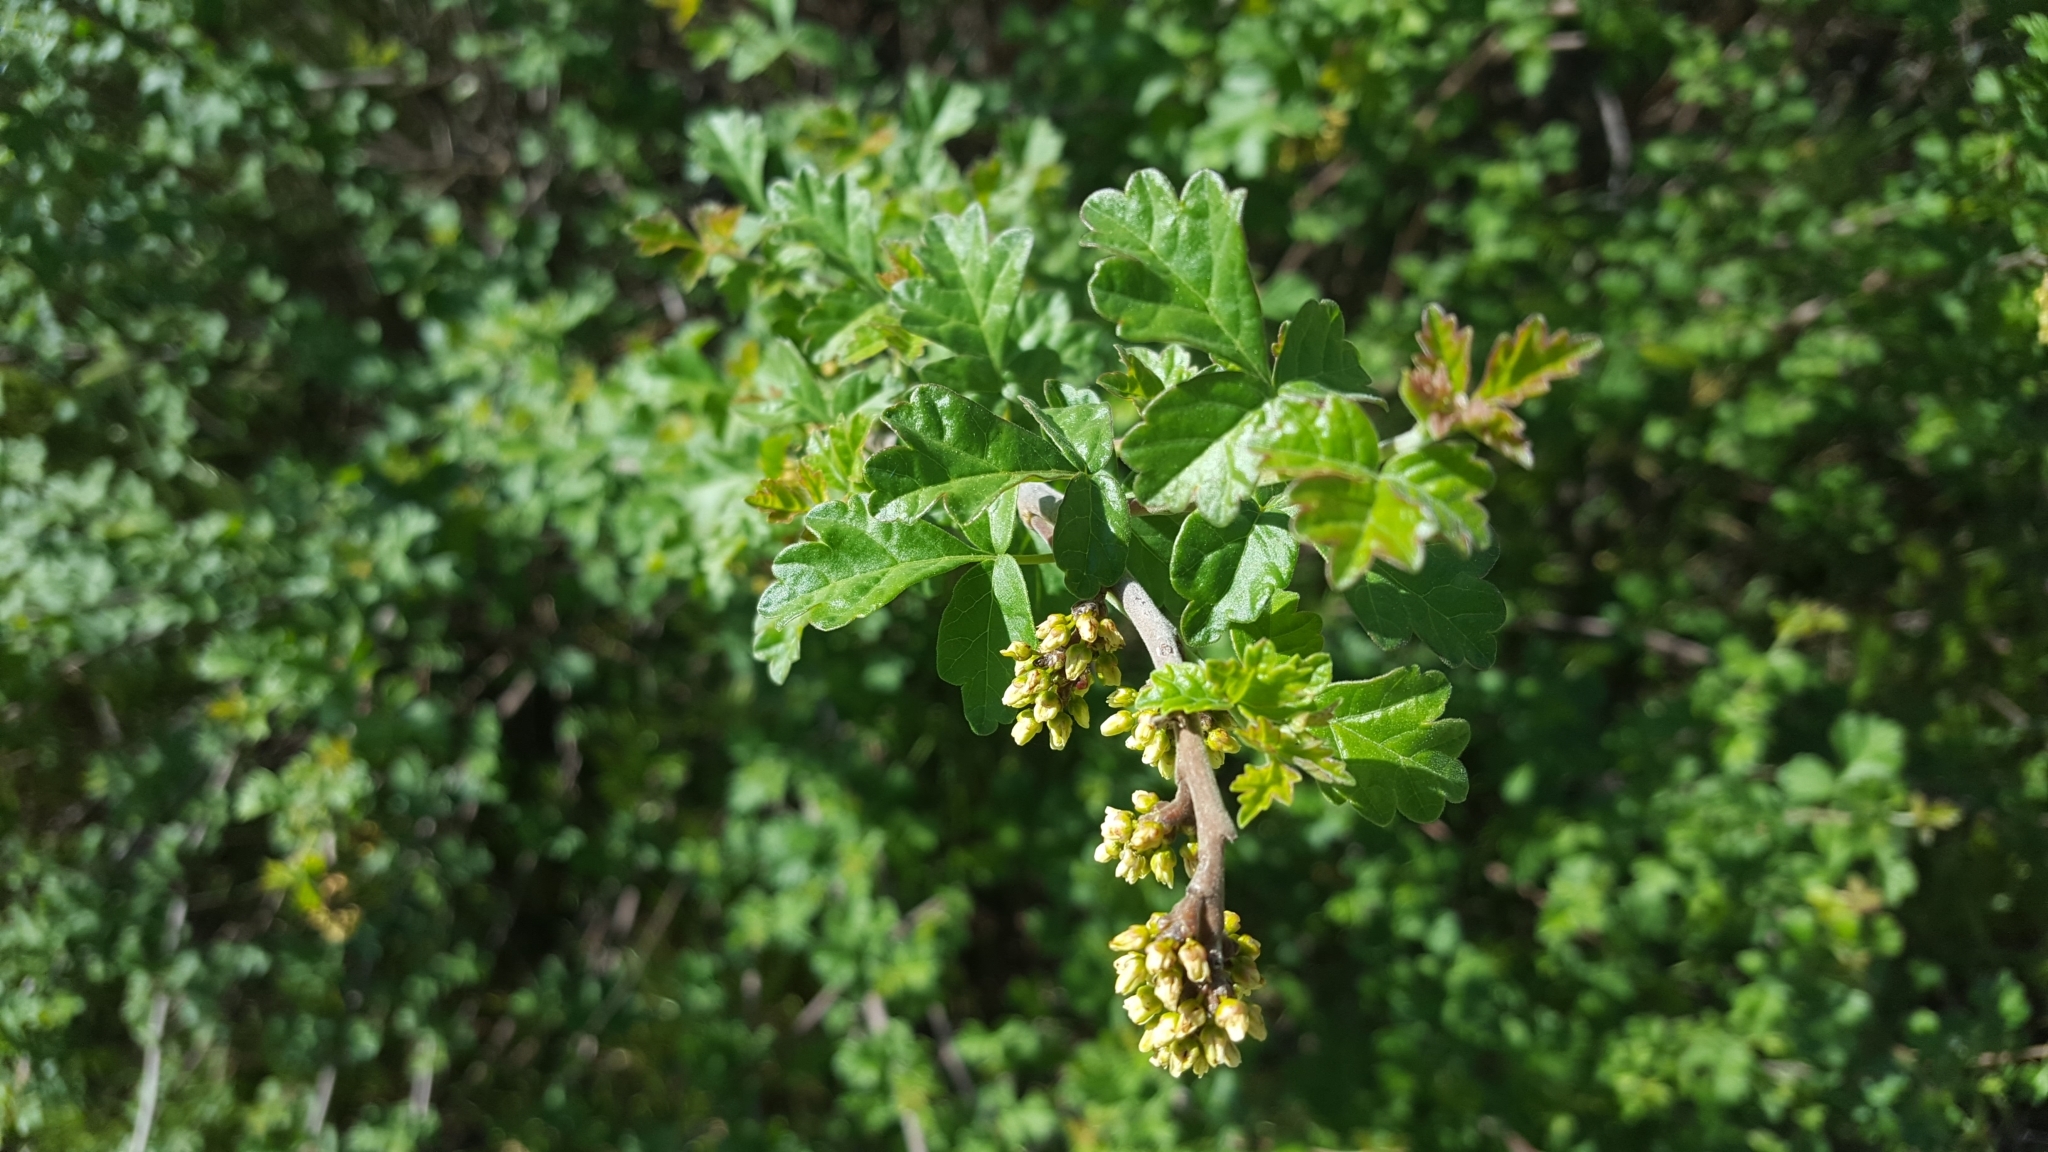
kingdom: Plantae
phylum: Tracheophyta
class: Magnoliopsida
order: Sapindales
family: Anacardiaceae
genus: Rhus
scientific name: Rhus aromatica
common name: Aromatic sumac
